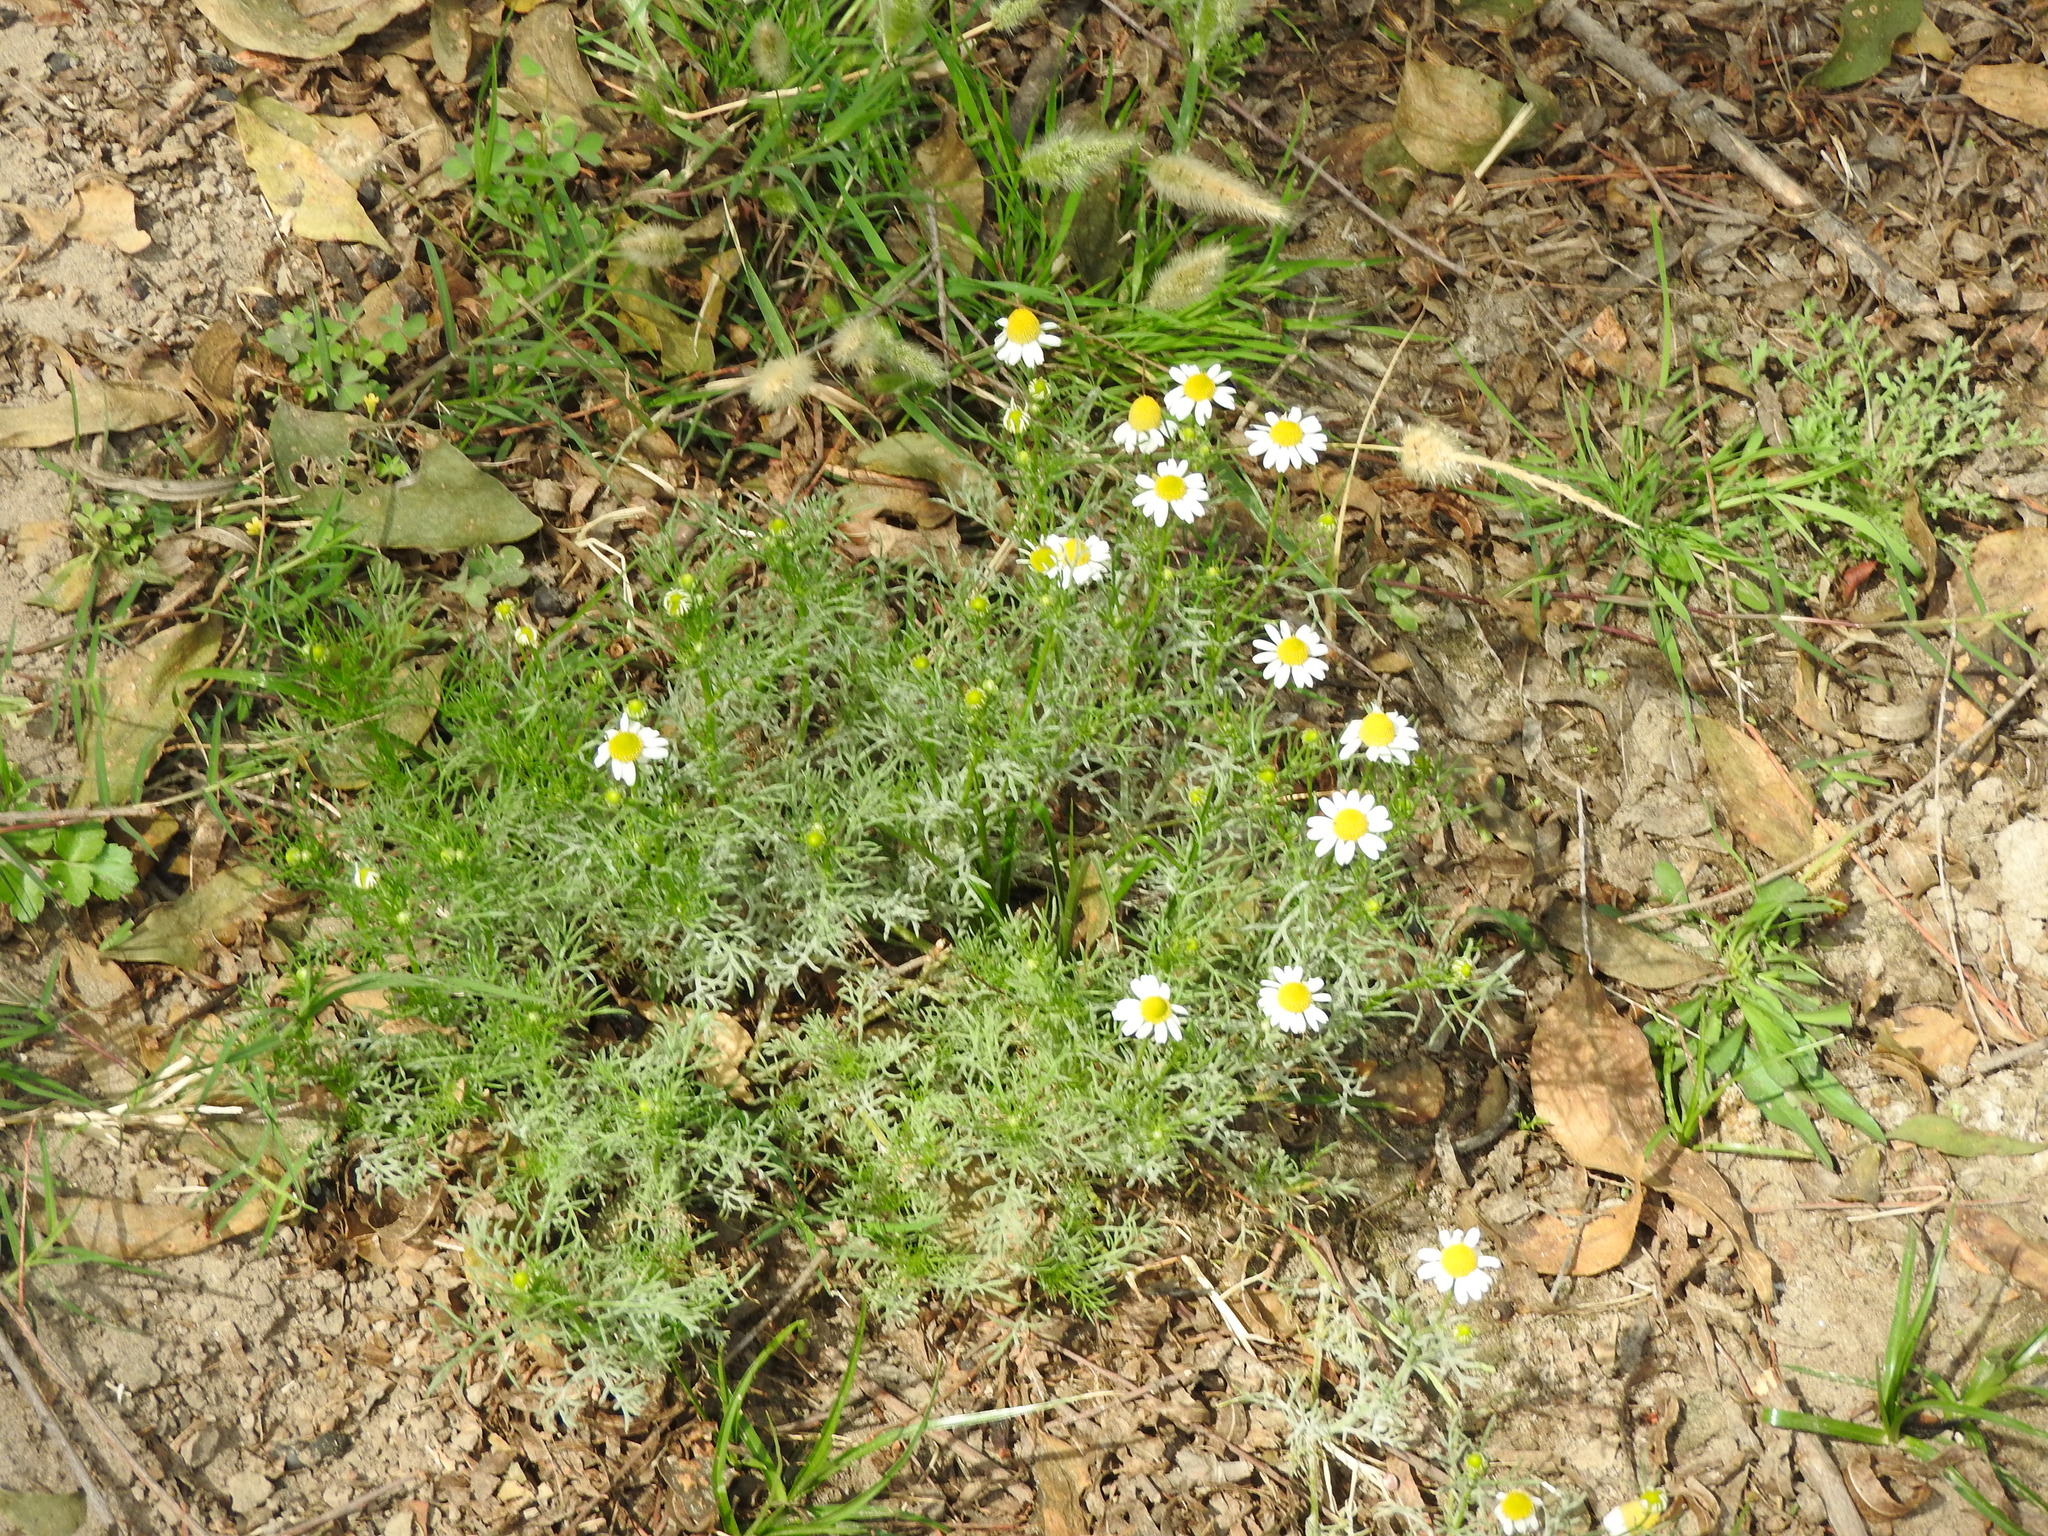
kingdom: Plantae
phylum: Tracheophyta
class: Magnoliopsida
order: Asterales
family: Asteraceae
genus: Matricaria
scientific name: Matricaria chamomilla
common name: Scented mayweed
